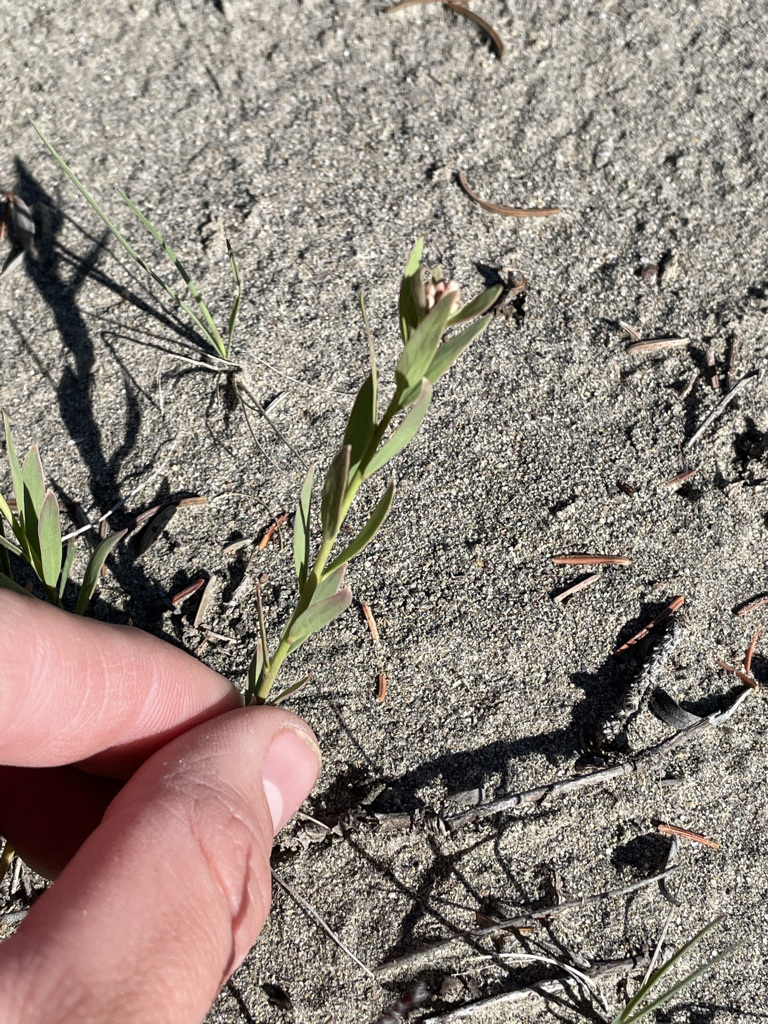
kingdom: Plantae
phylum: Tracheophyta
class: Magnoliopsida
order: Santalales
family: Comandraceae
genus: Comandra
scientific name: Comandra umbellata
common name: Bastard toadflax
